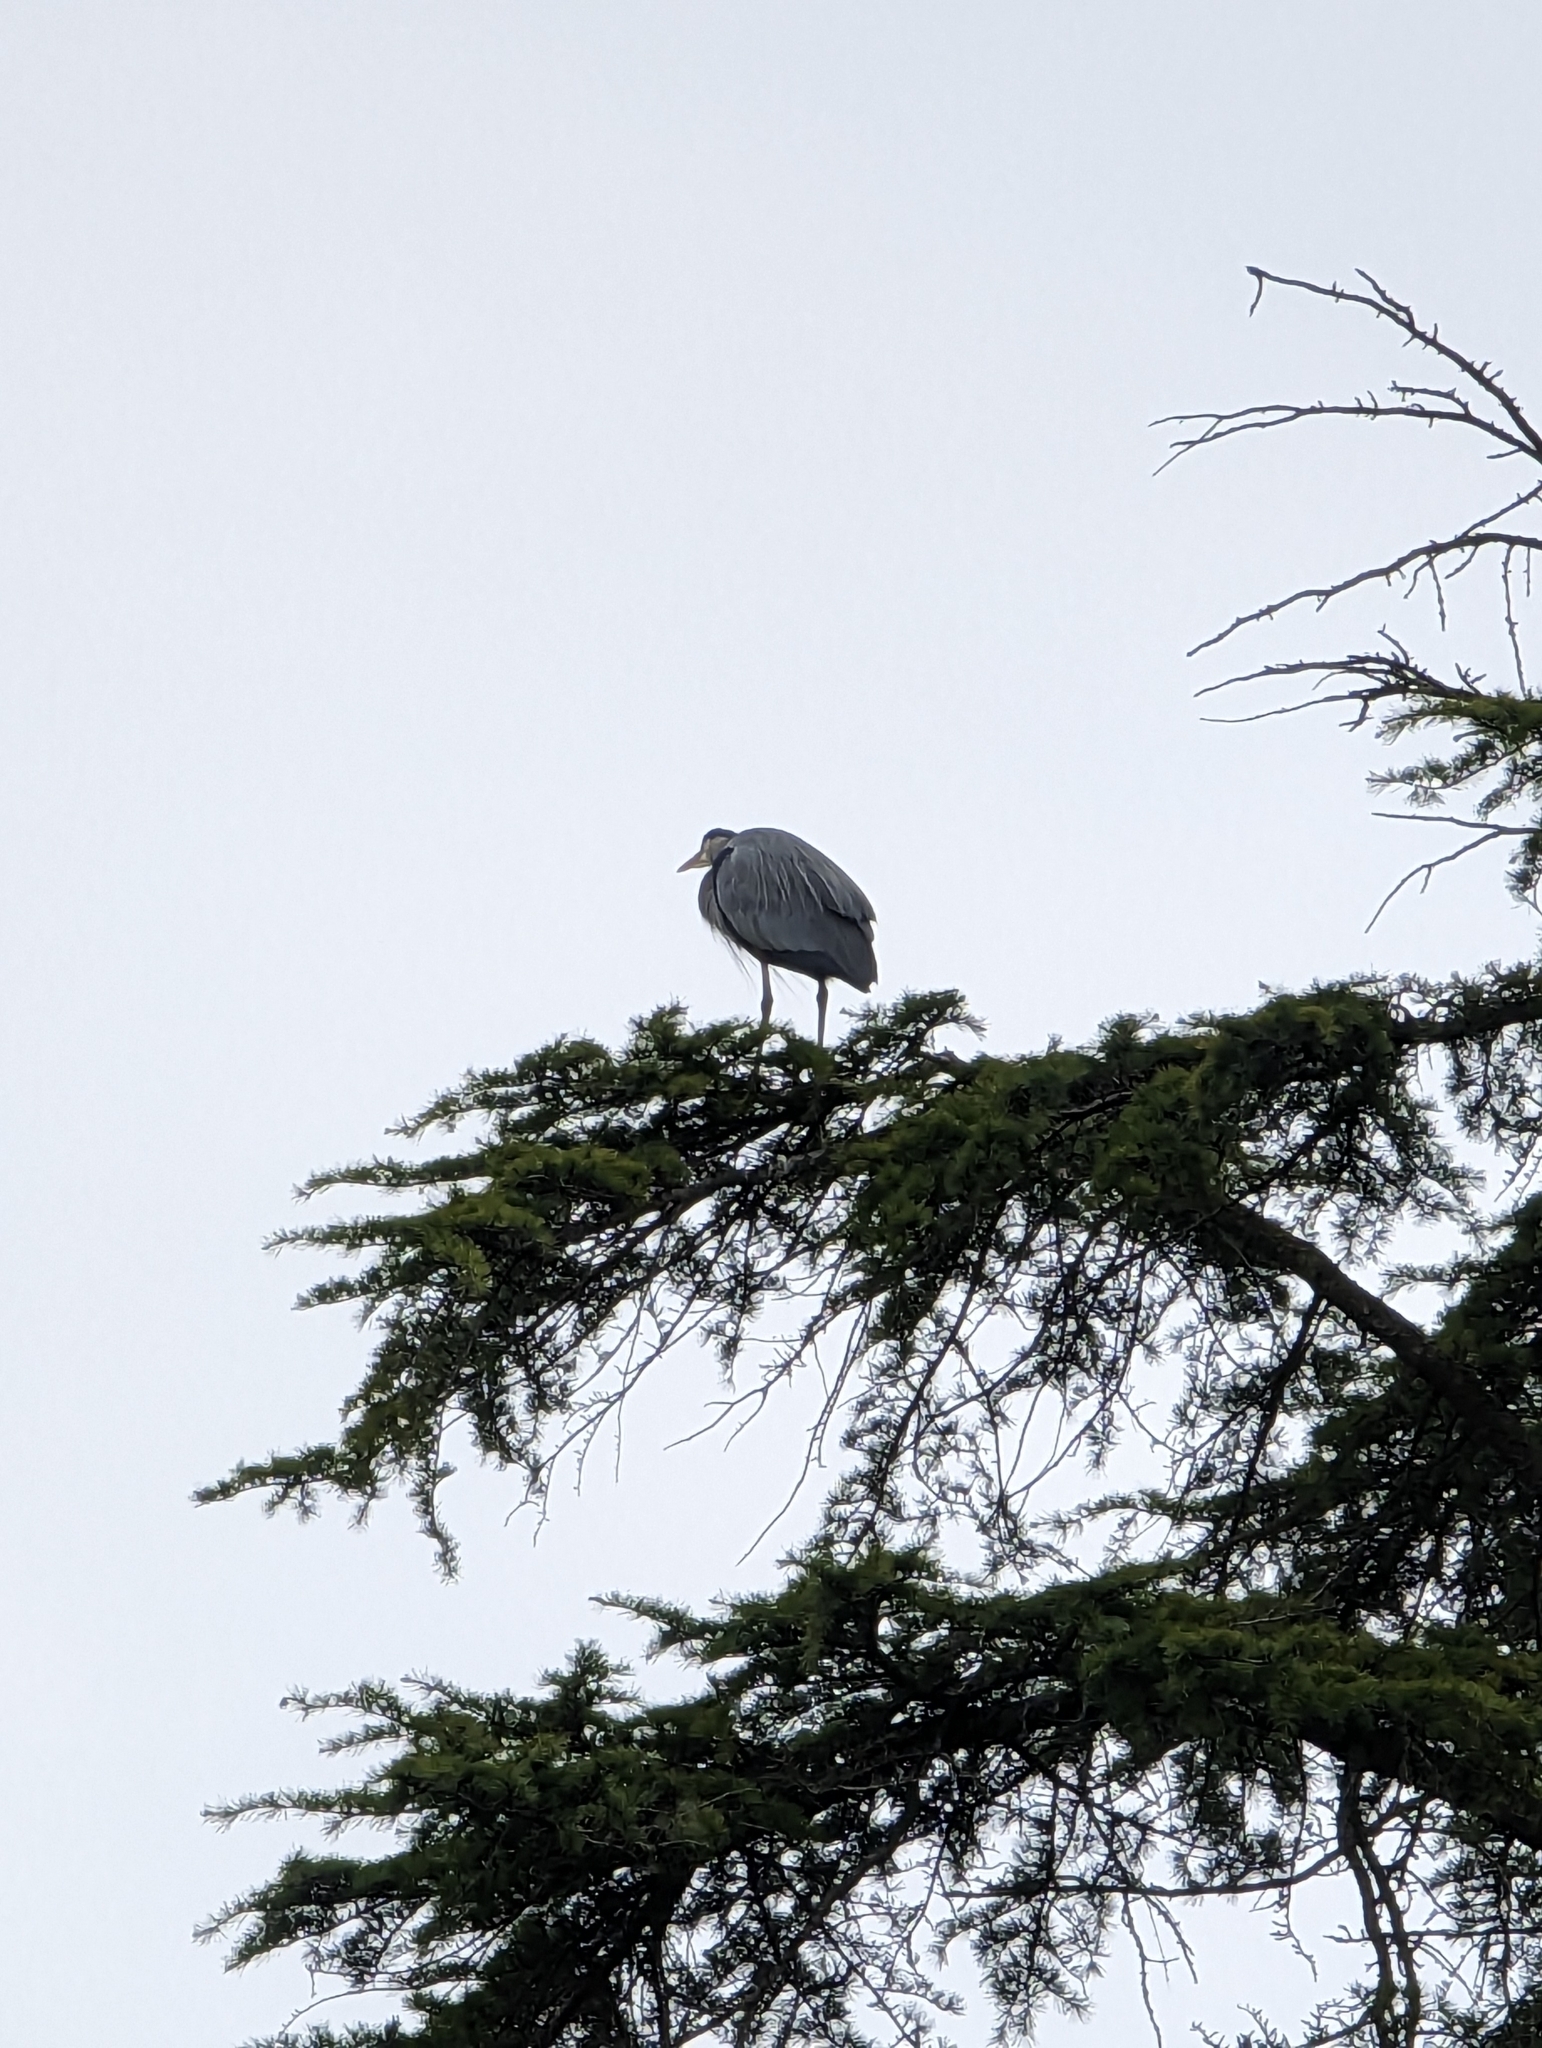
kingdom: Animalia
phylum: Chordata
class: Aves
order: Pelecaniformes
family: Ardeidae
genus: Ardea
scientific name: Ardea herodias
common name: Great blue heron
